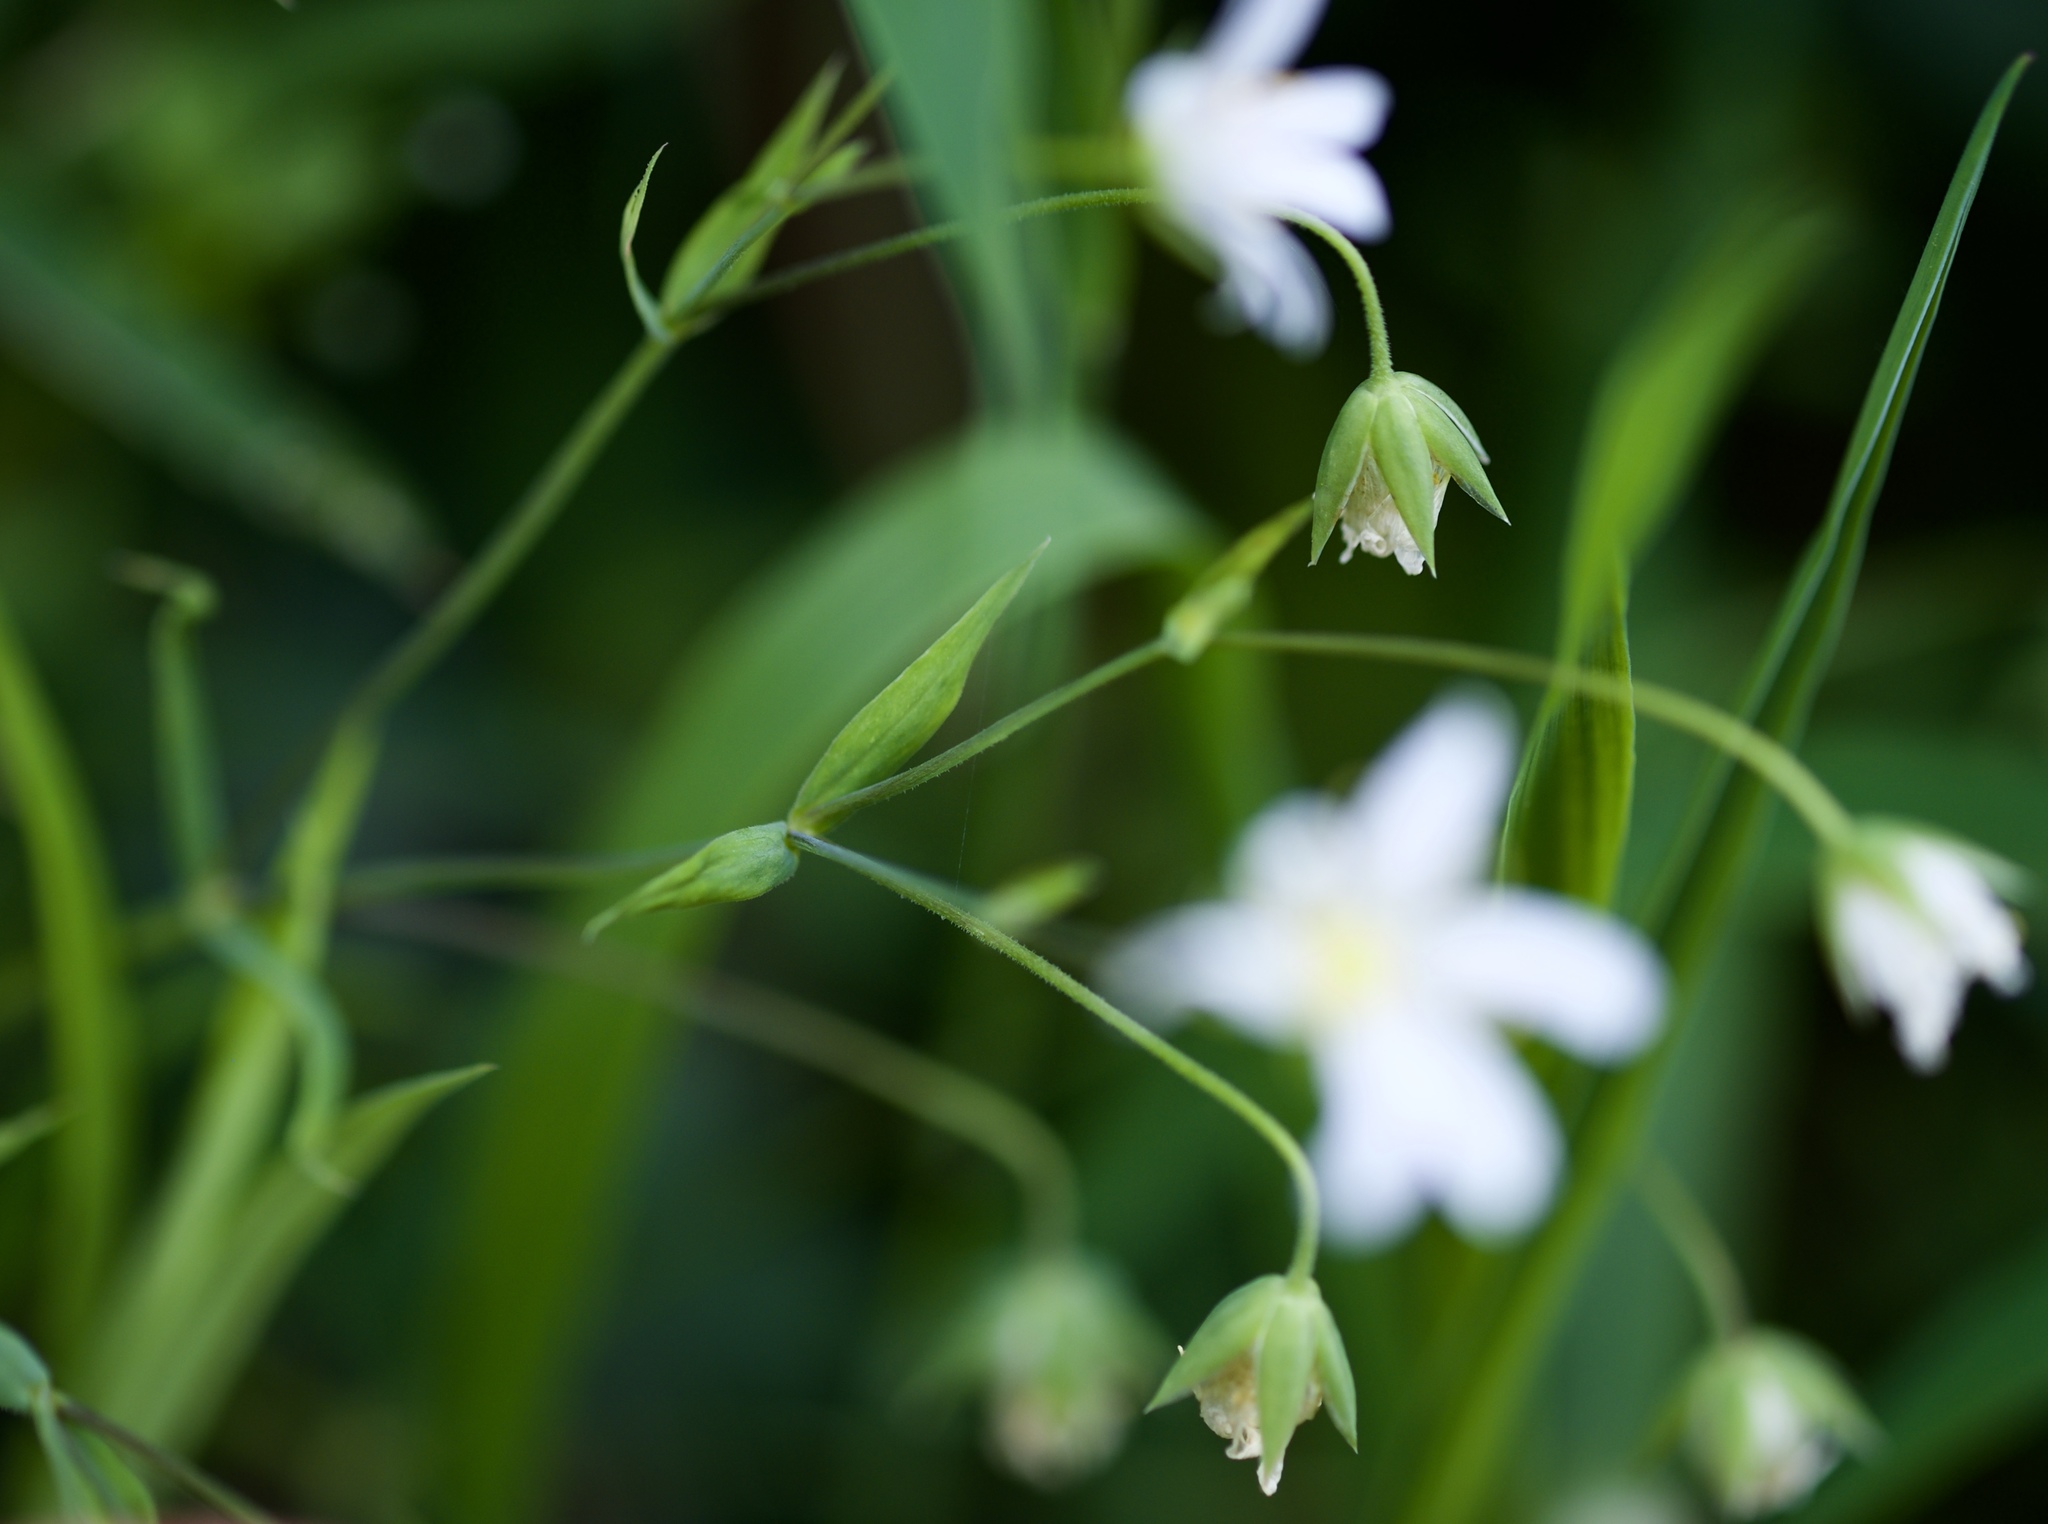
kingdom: Plantae
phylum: Tracheophyta
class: Magnoliopsida
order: Caryophyllales
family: Caryophyllaceae
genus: Rabelera
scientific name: Rabelera holostea
